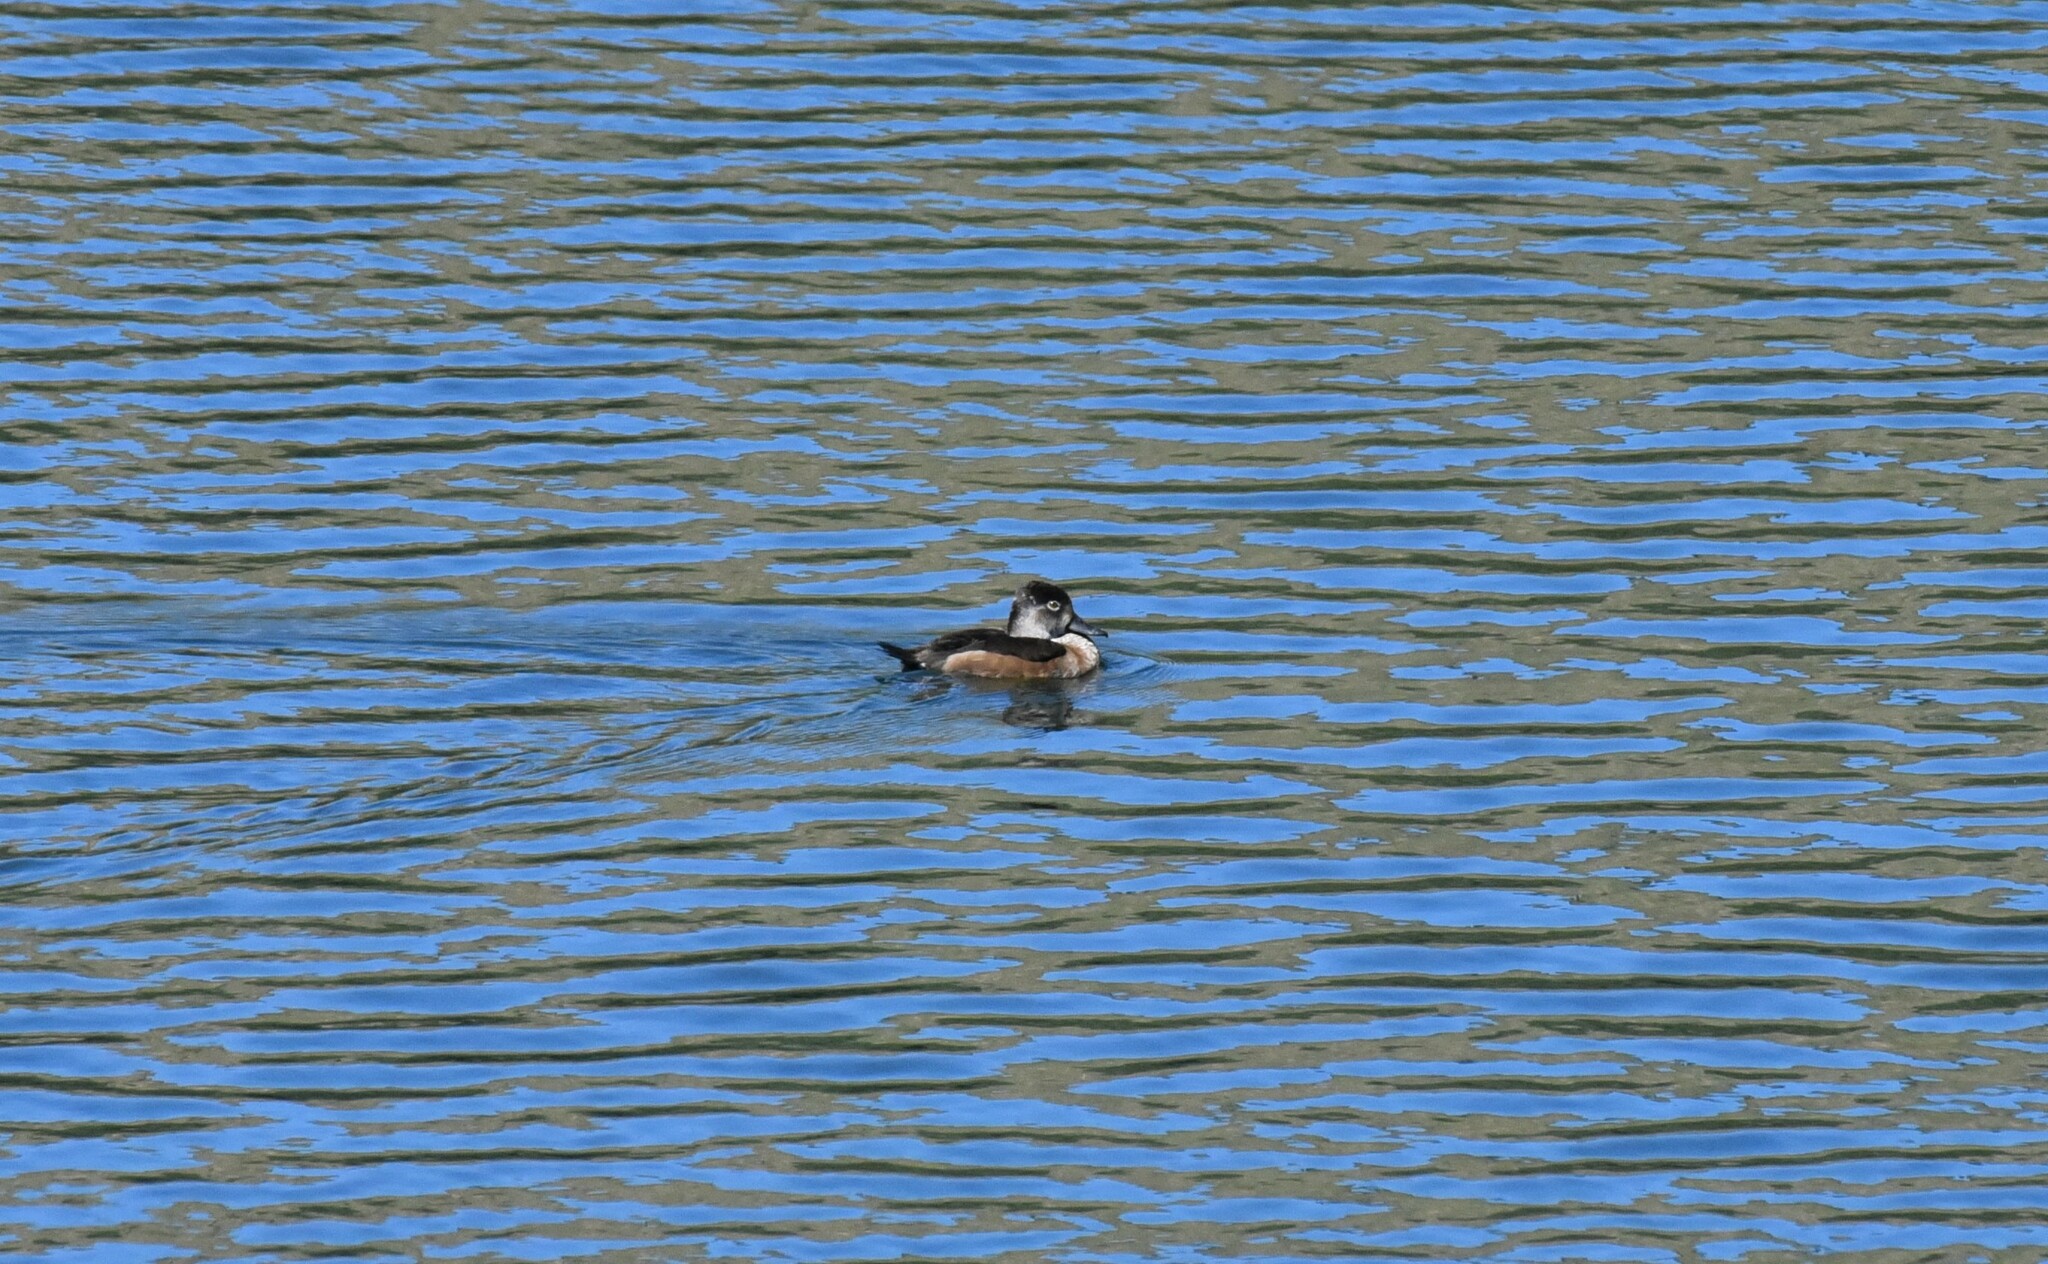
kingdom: Animalia
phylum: Chordata
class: Aves
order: Anseriformes
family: Anatidae
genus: Aythya
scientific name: Aythya collaris
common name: Ring-necked duck
